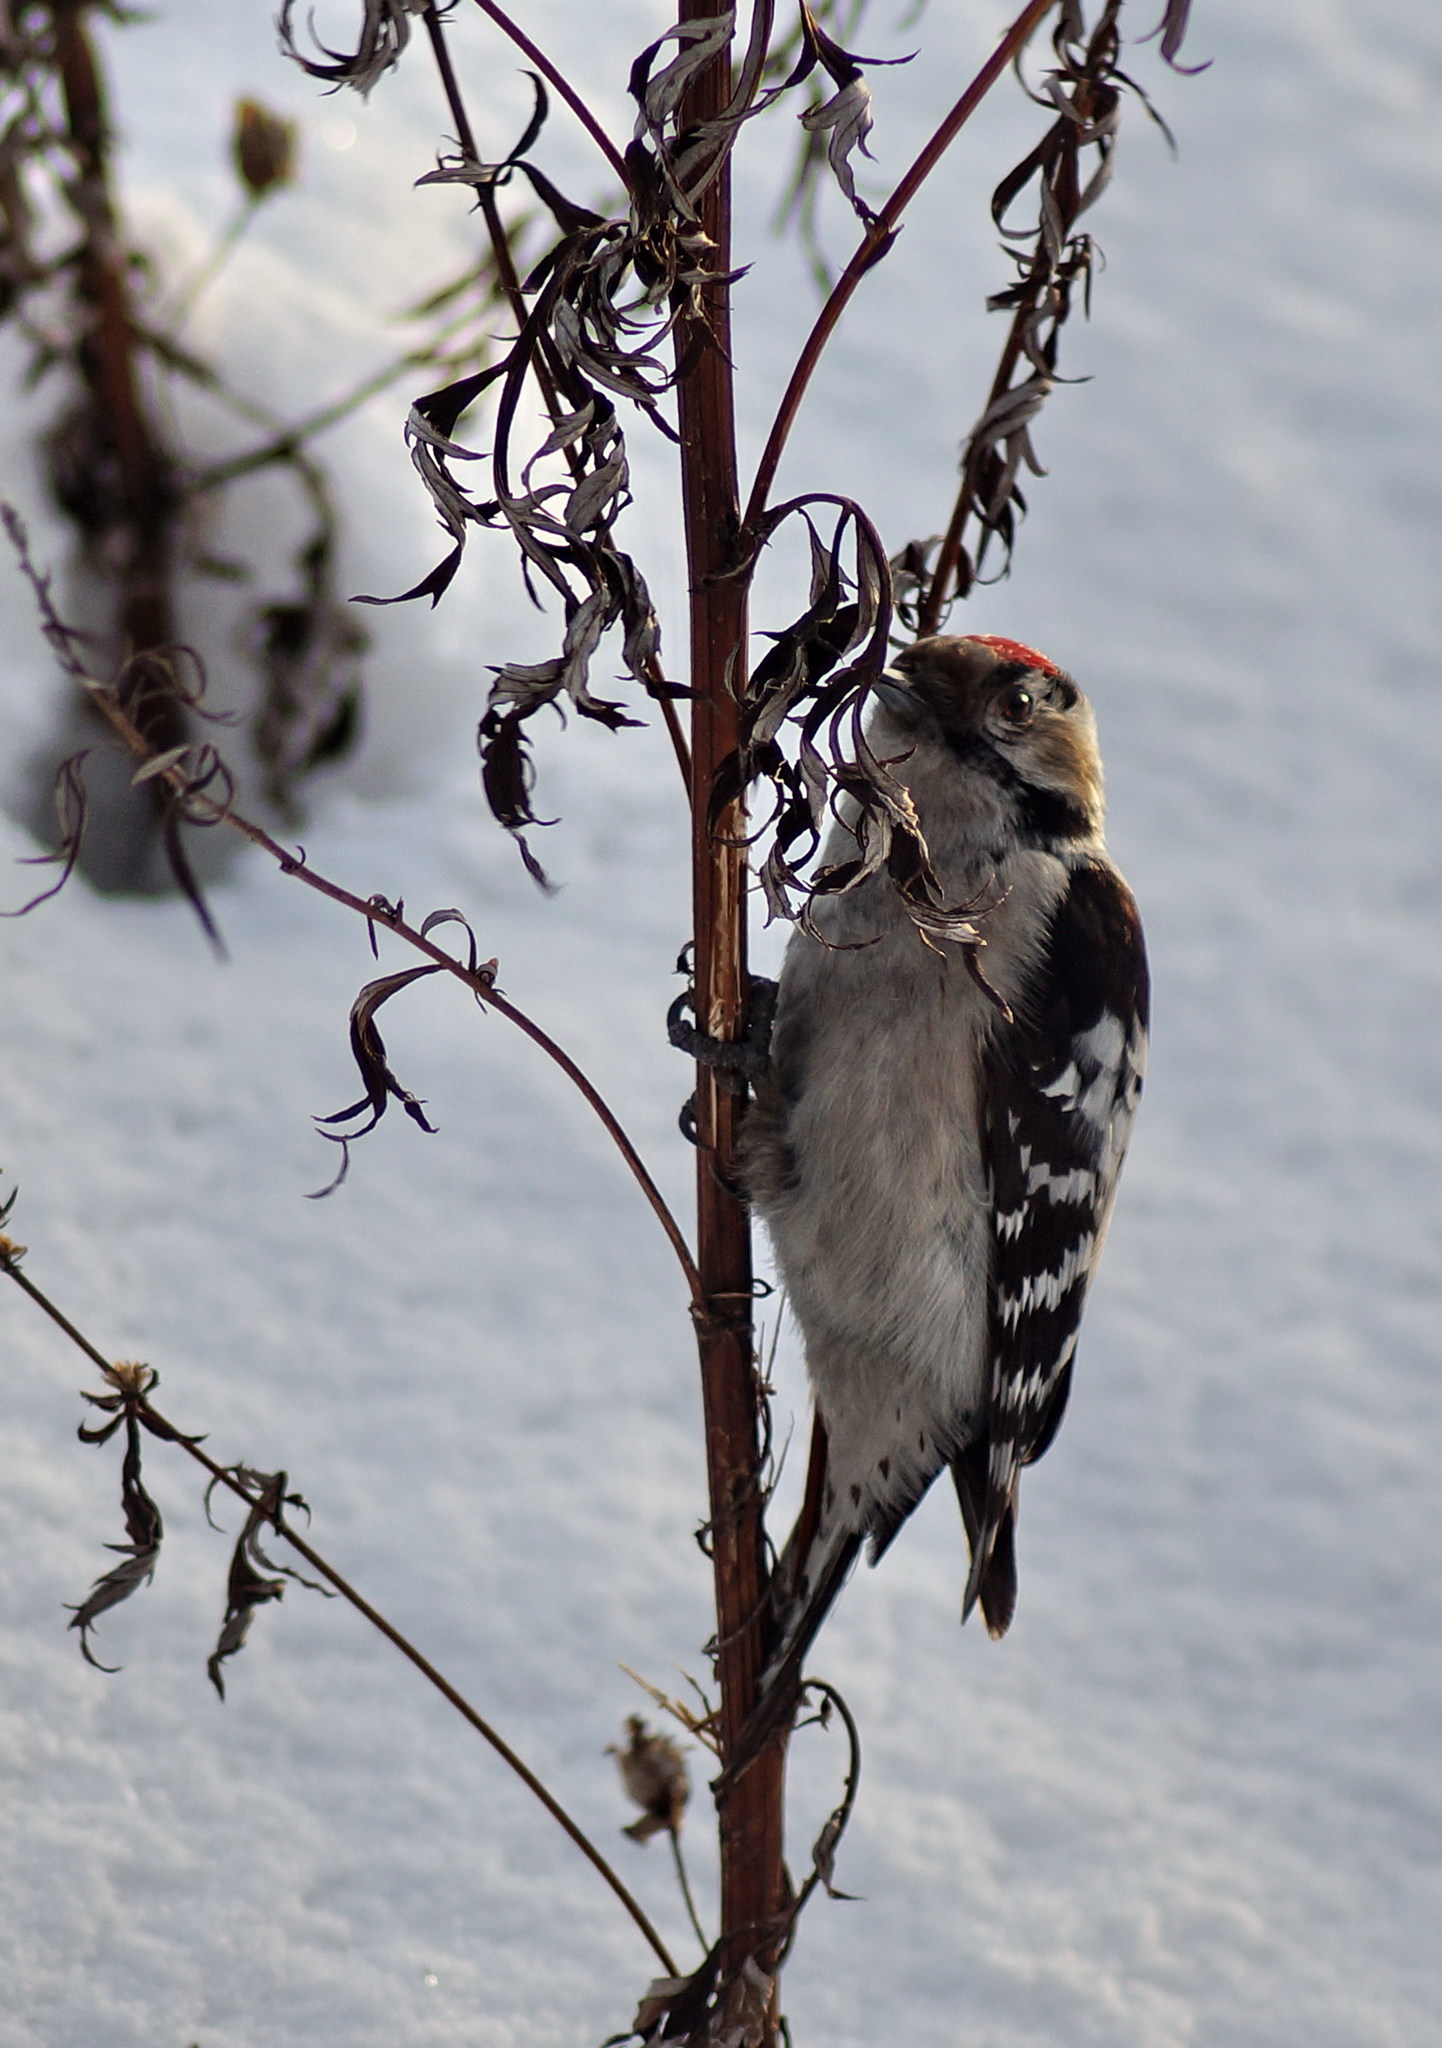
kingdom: Animalia
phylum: Chordata
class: Aves
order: Piciformes
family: Picidae
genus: Dryobates
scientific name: Dryobates minor
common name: Lesser spotted woodpecker
